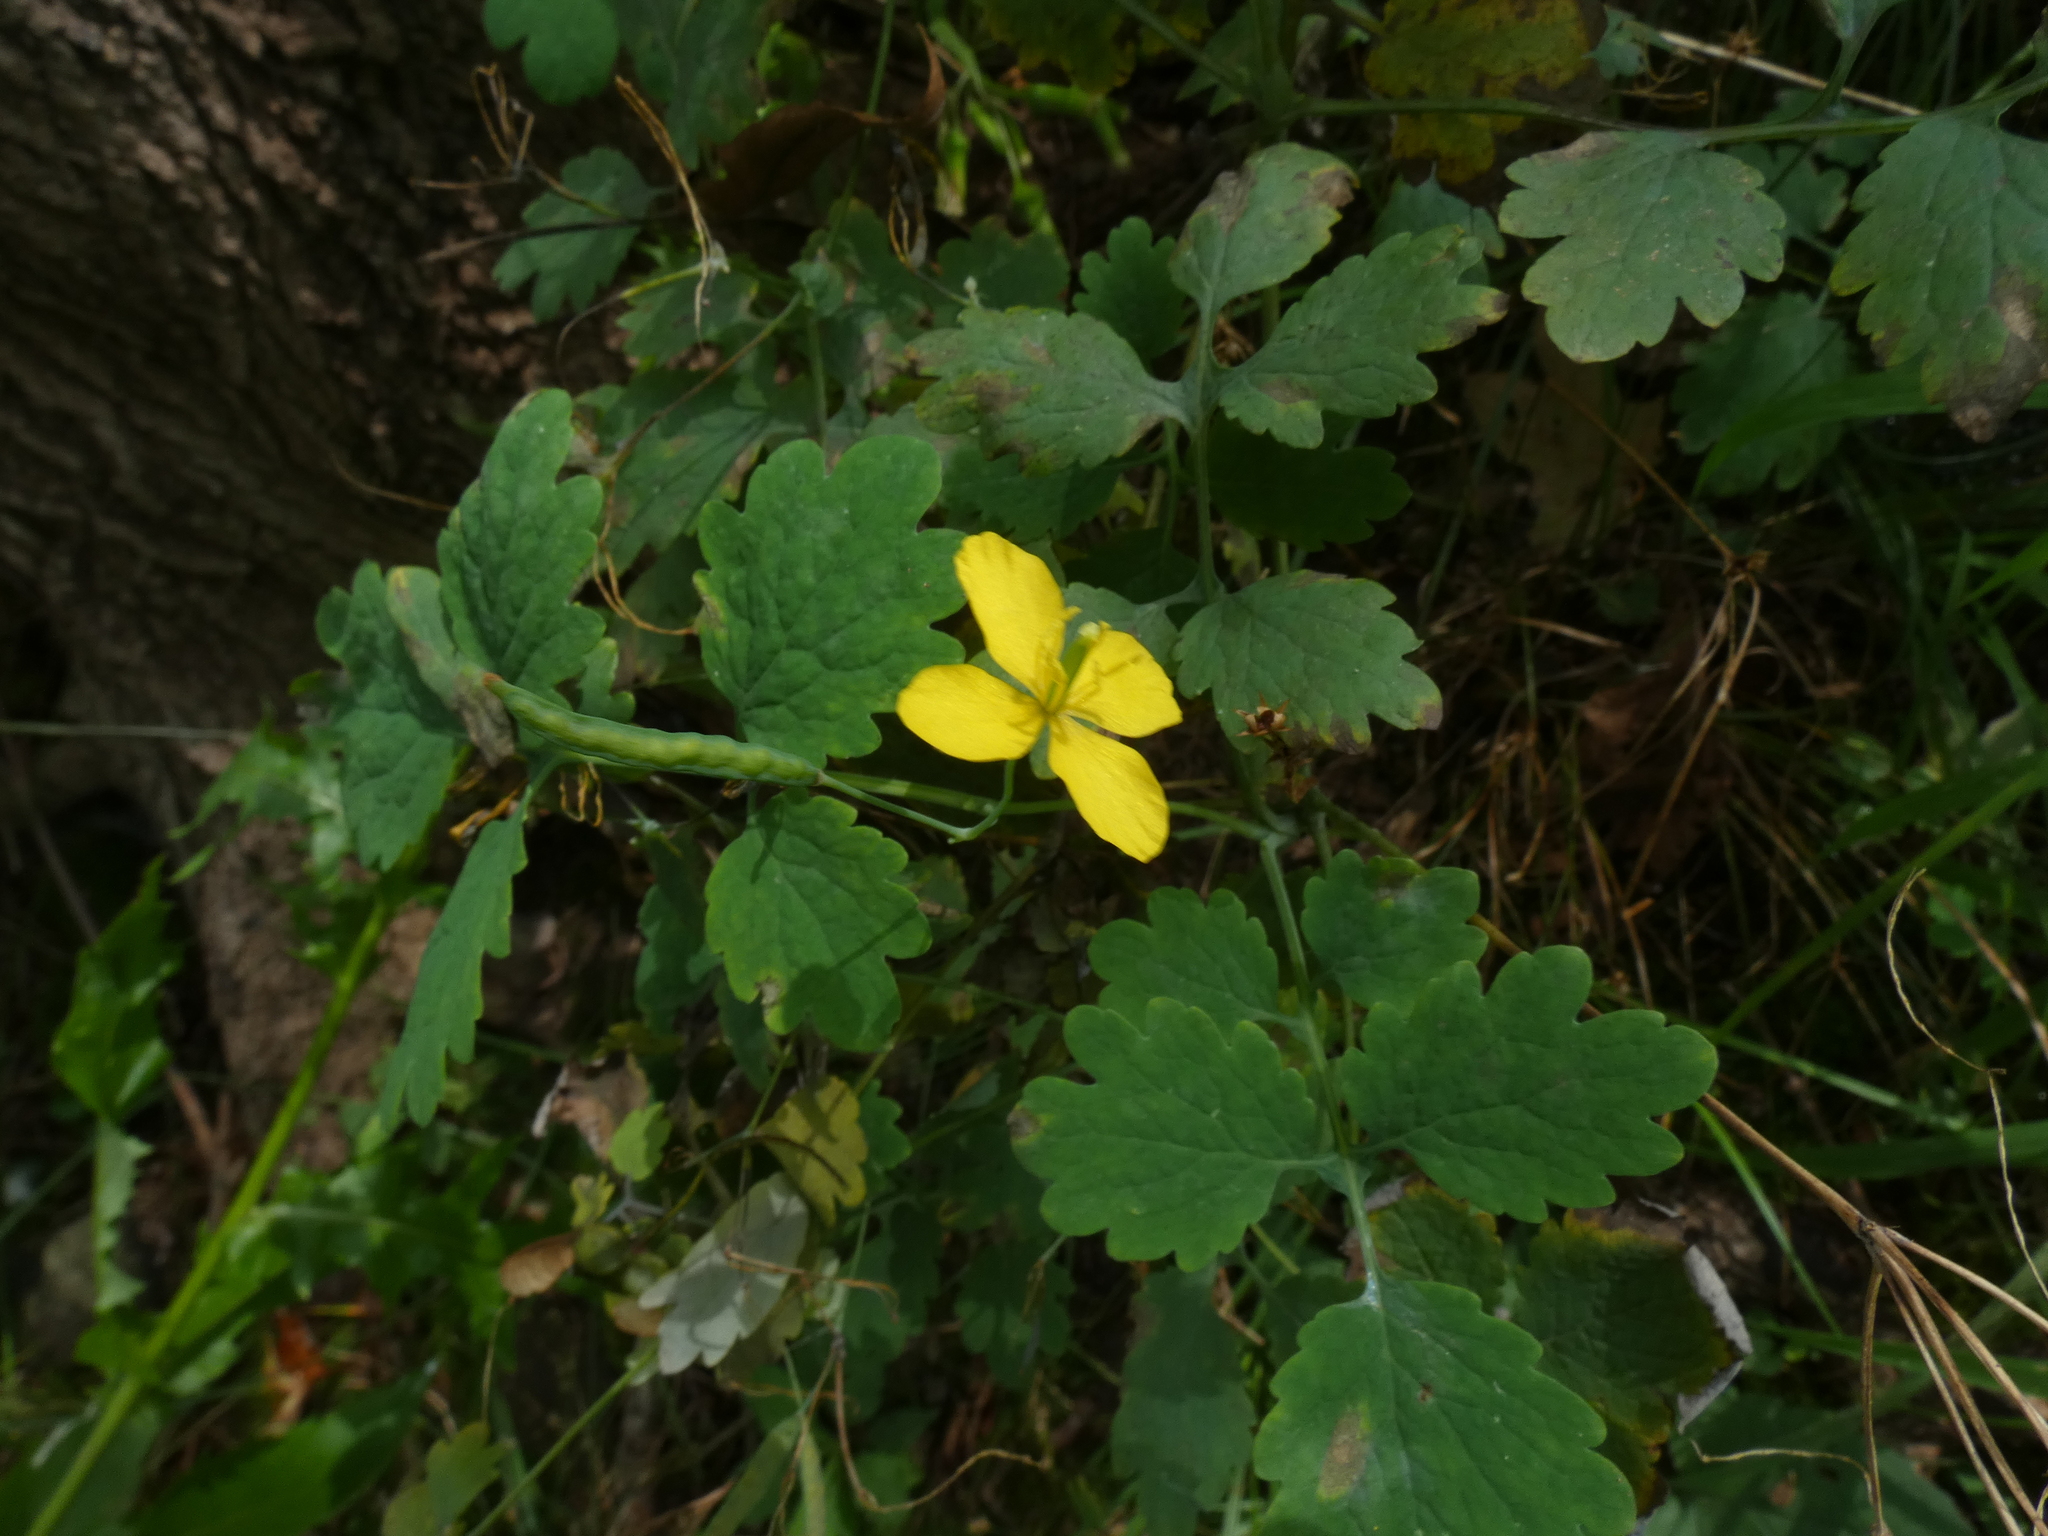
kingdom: Plantae
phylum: Tracheophyta
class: Magnoliopsida
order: Ranunculales
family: Papaveraceae
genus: Chelidonium
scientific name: Chelidonium majus
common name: Greater celandine
